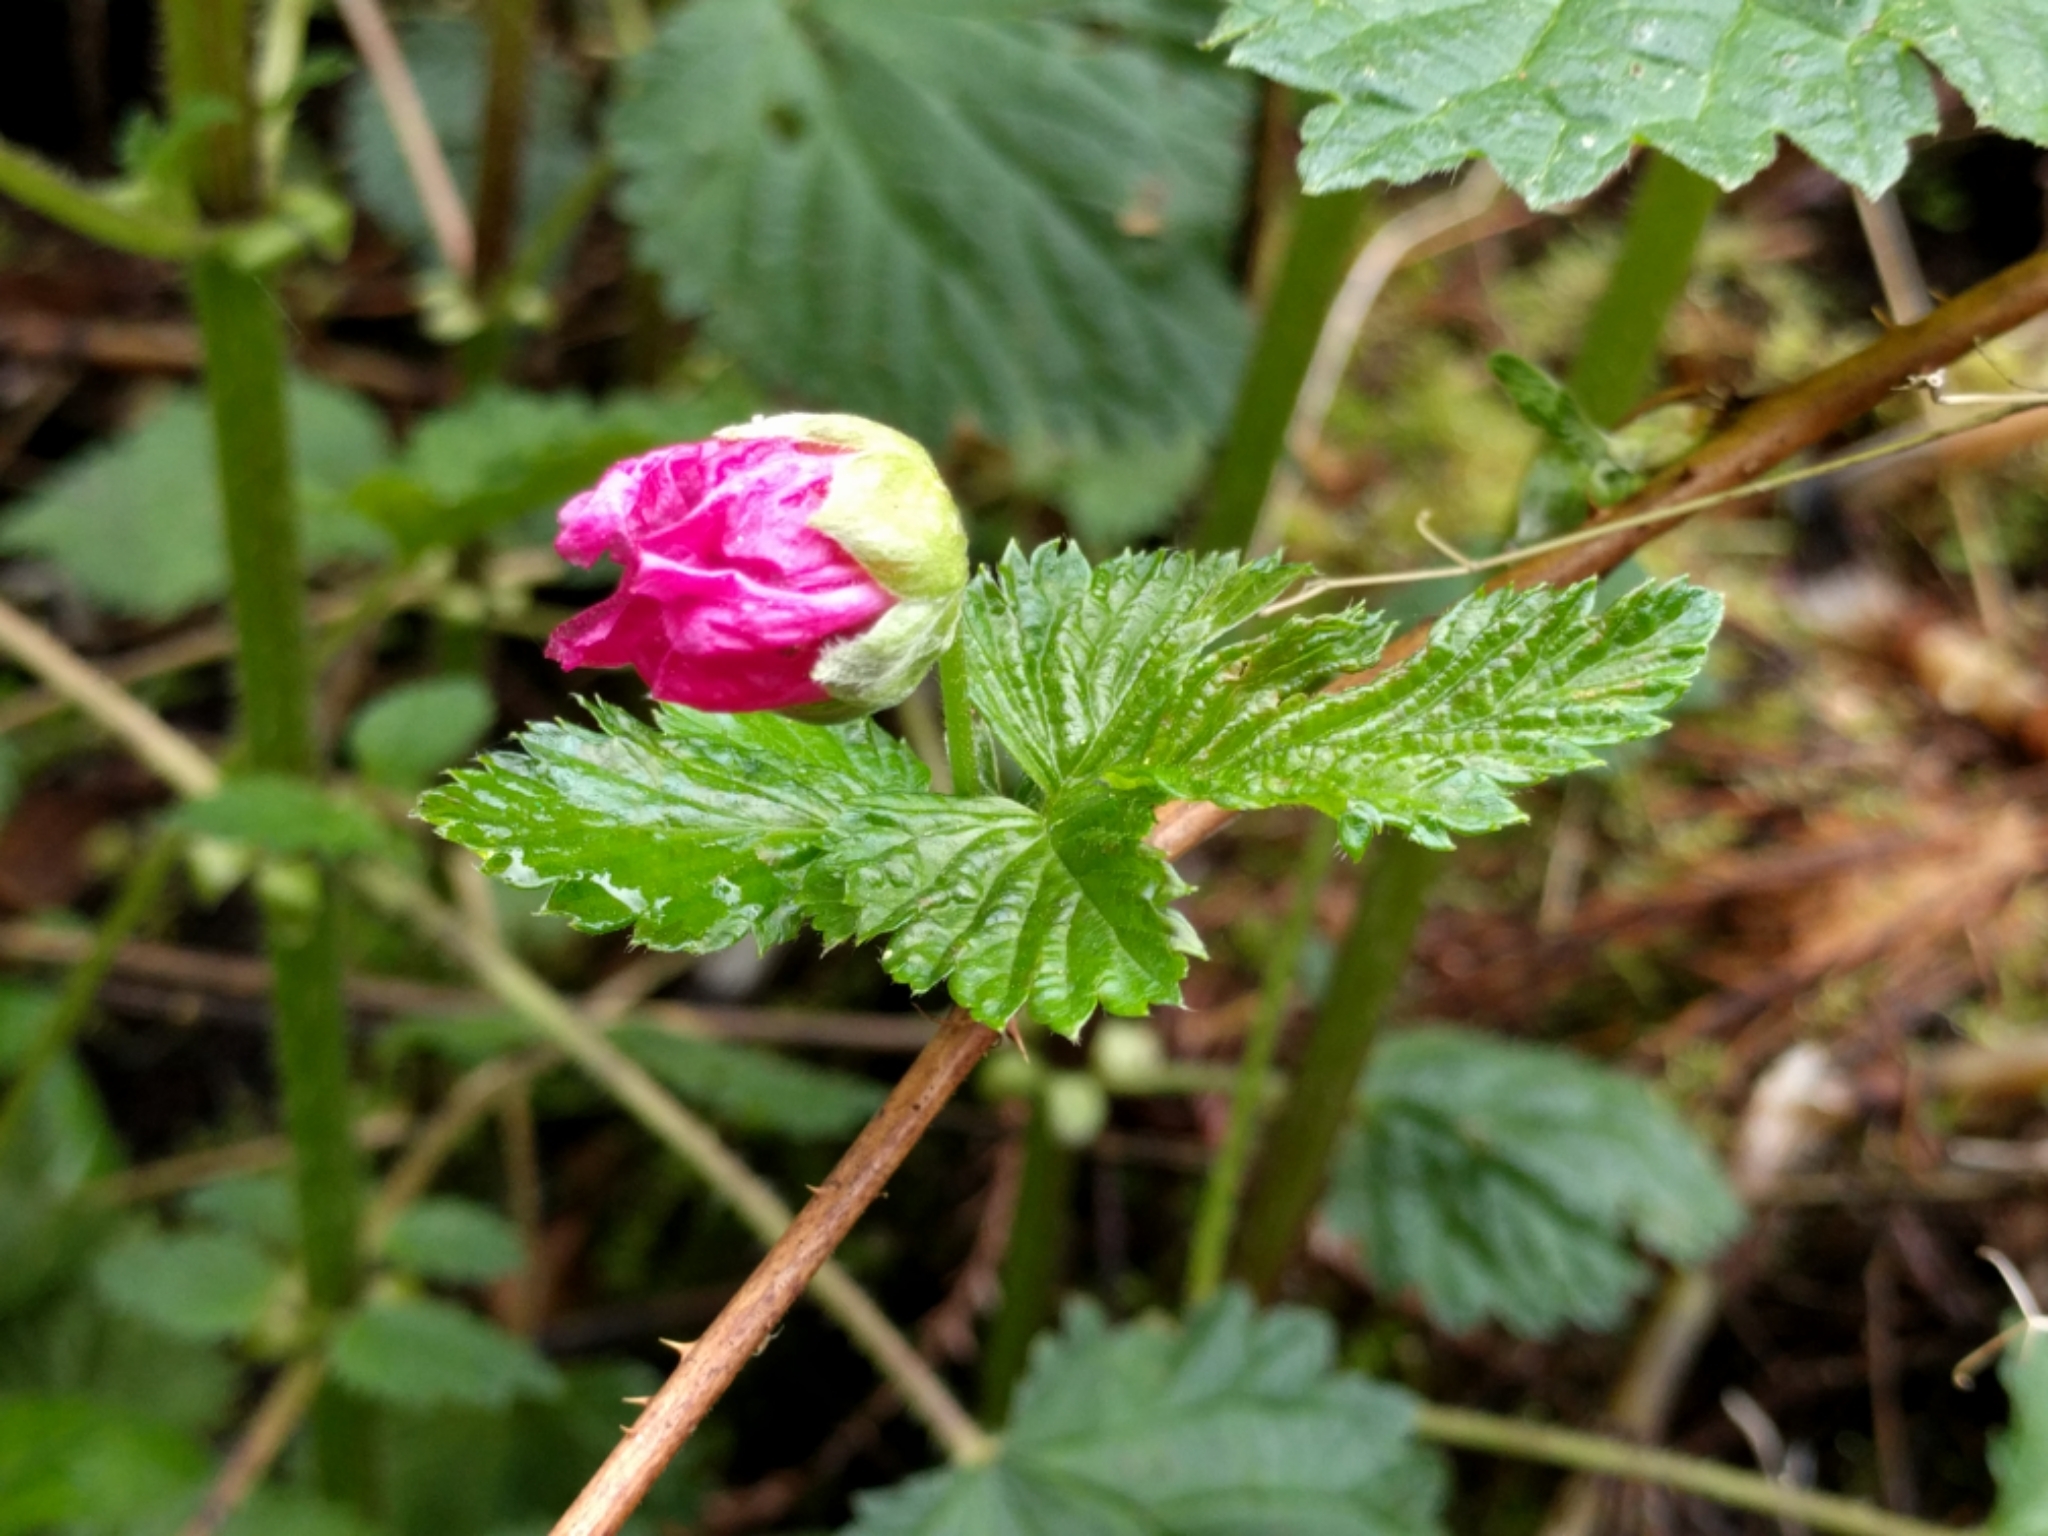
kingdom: Plantae
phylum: Tracheophyta
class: Magnoliopsida
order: Rosales
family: Rosaceae
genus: Rubus
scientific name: Rubus spectabilis
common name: Salmonberry
